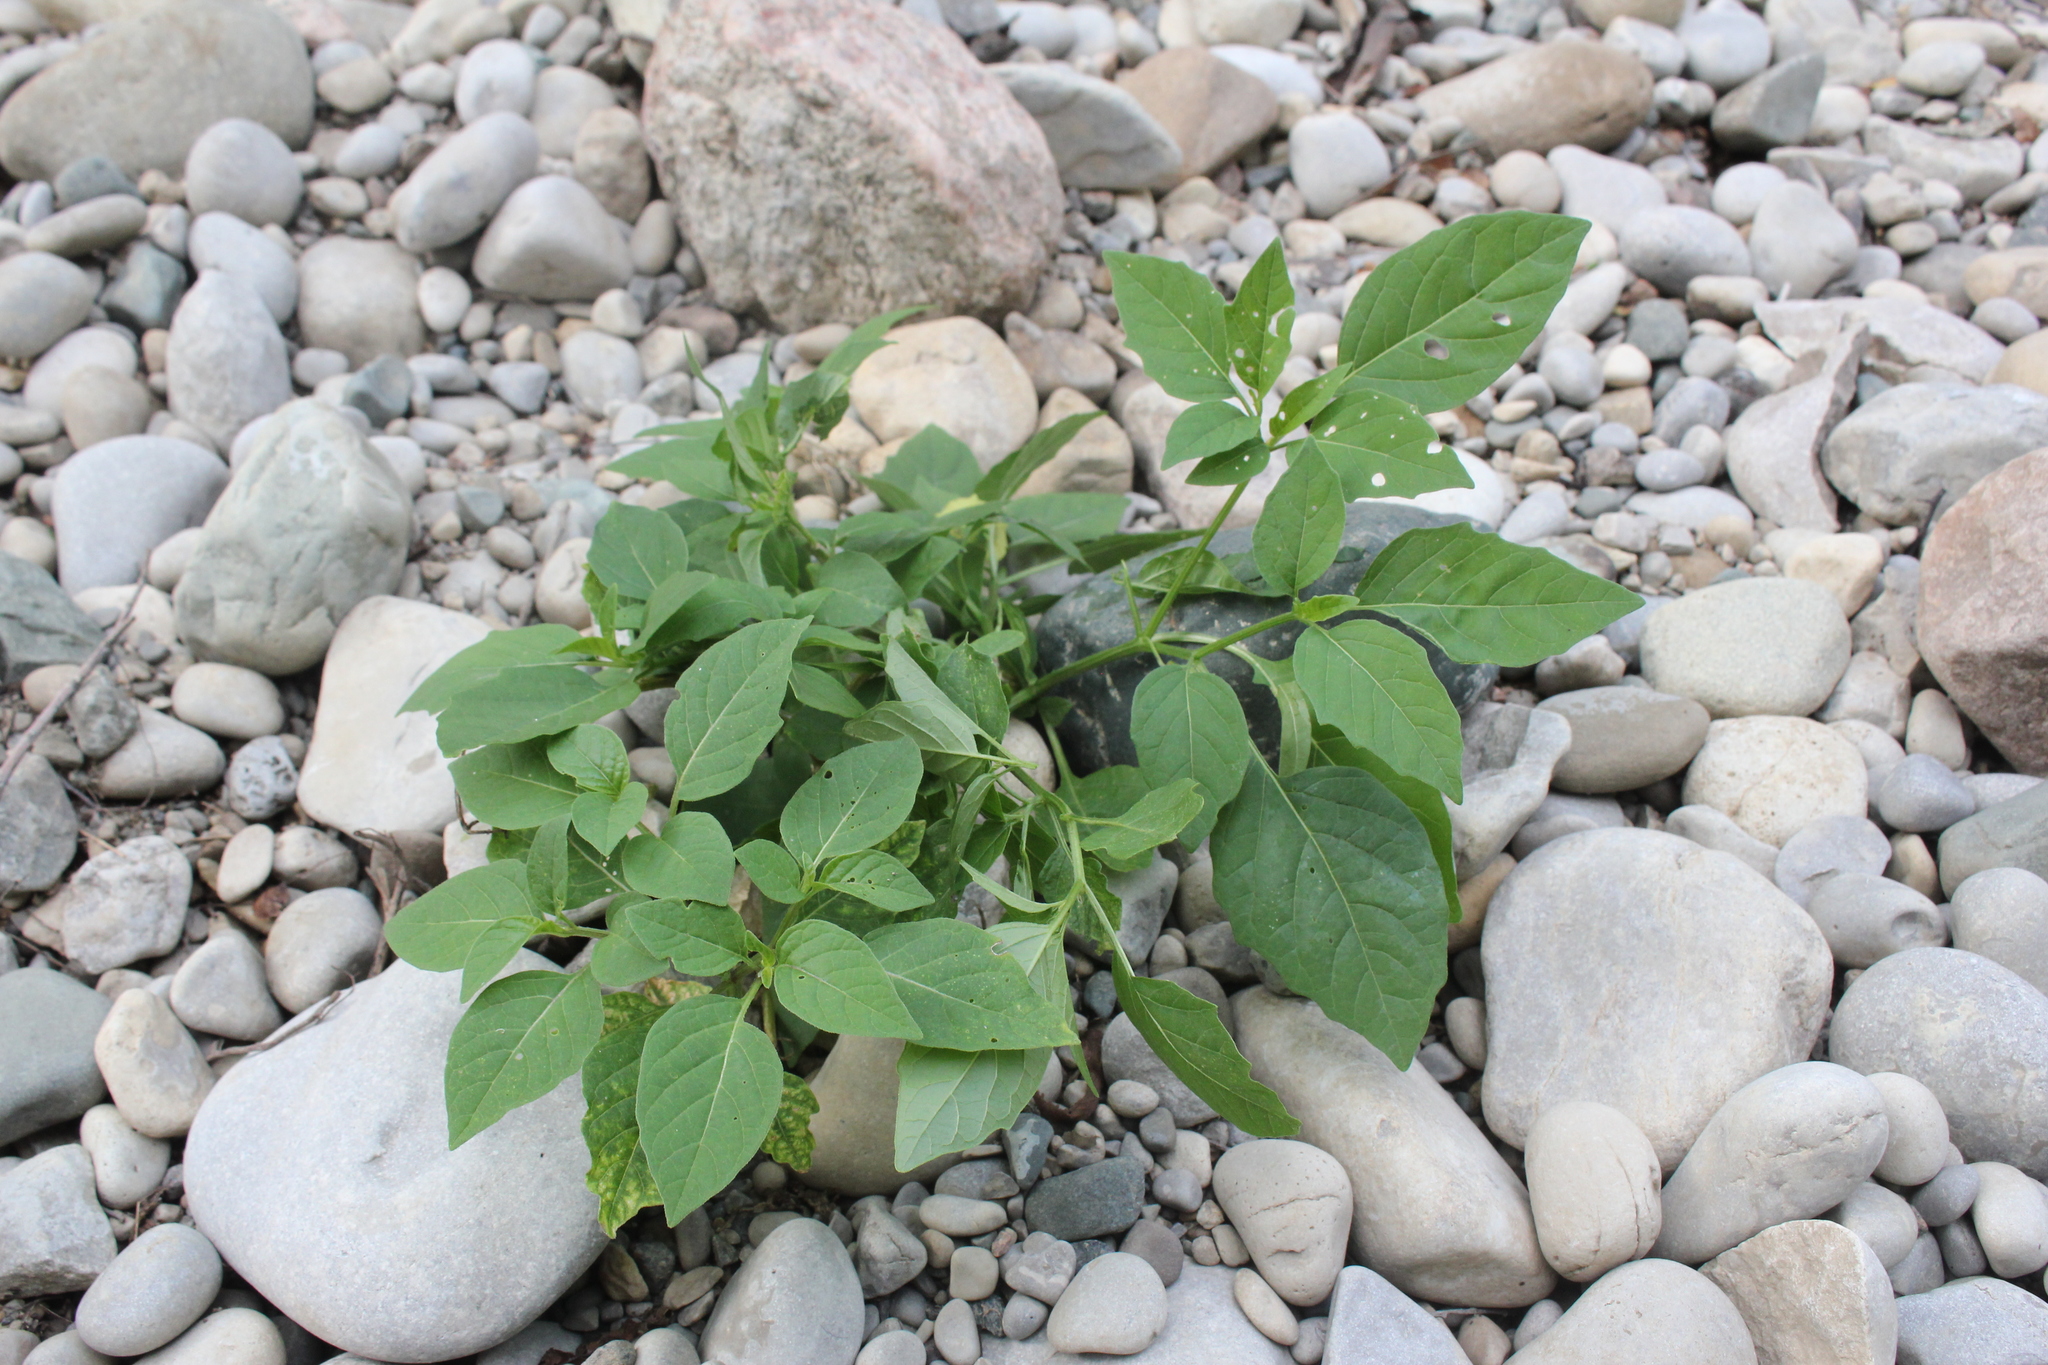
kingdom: Plantae
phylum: Tracheophyta
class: Magnoliopsida
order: Solanales
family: Solanaceae
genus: Physalis
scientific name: Physalis longifolia
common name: Common ground-cherry
